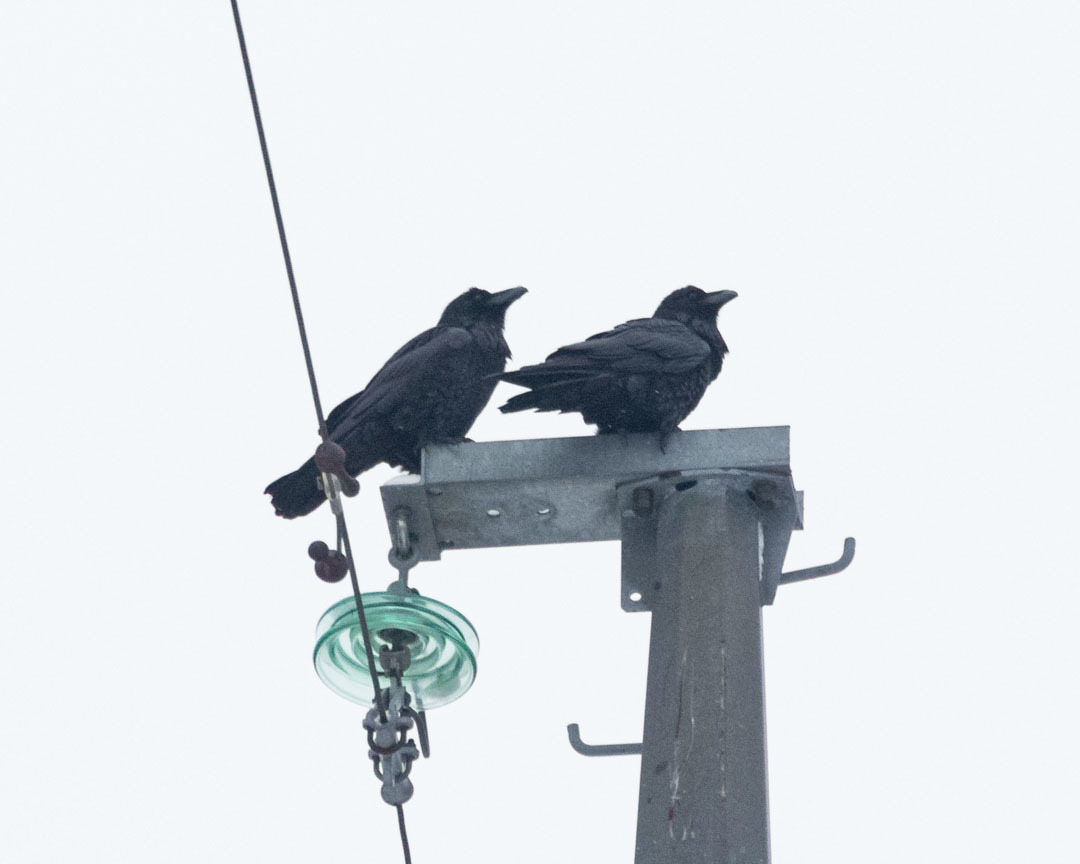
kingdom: Animalia
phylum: Chordata
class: Aves
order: Passeriformes
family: Corvidae
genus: Corvus
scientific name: Corvus corax
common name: Common raven
